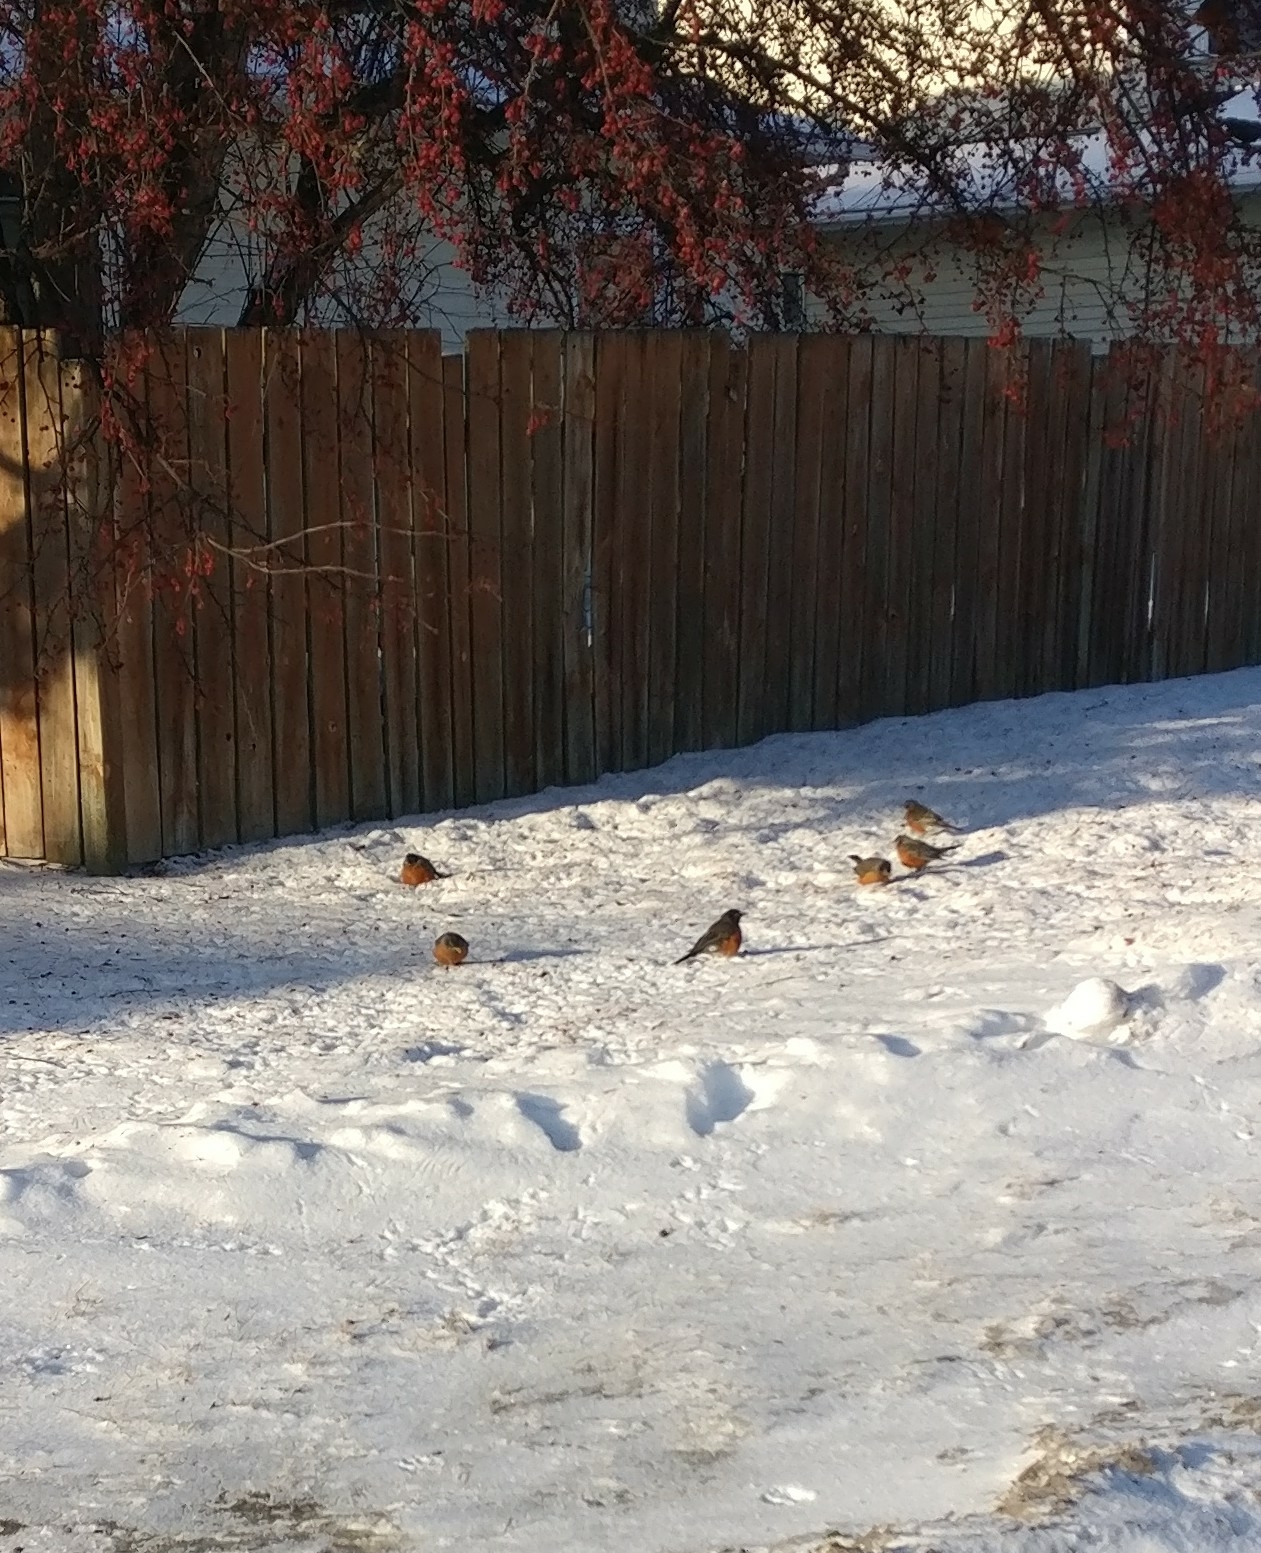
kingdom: Animalia
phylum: Chordata
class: Aves
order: Passeriformes
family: Turdidae
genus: Turdus
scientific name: Turdus migratorius
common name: American robin
